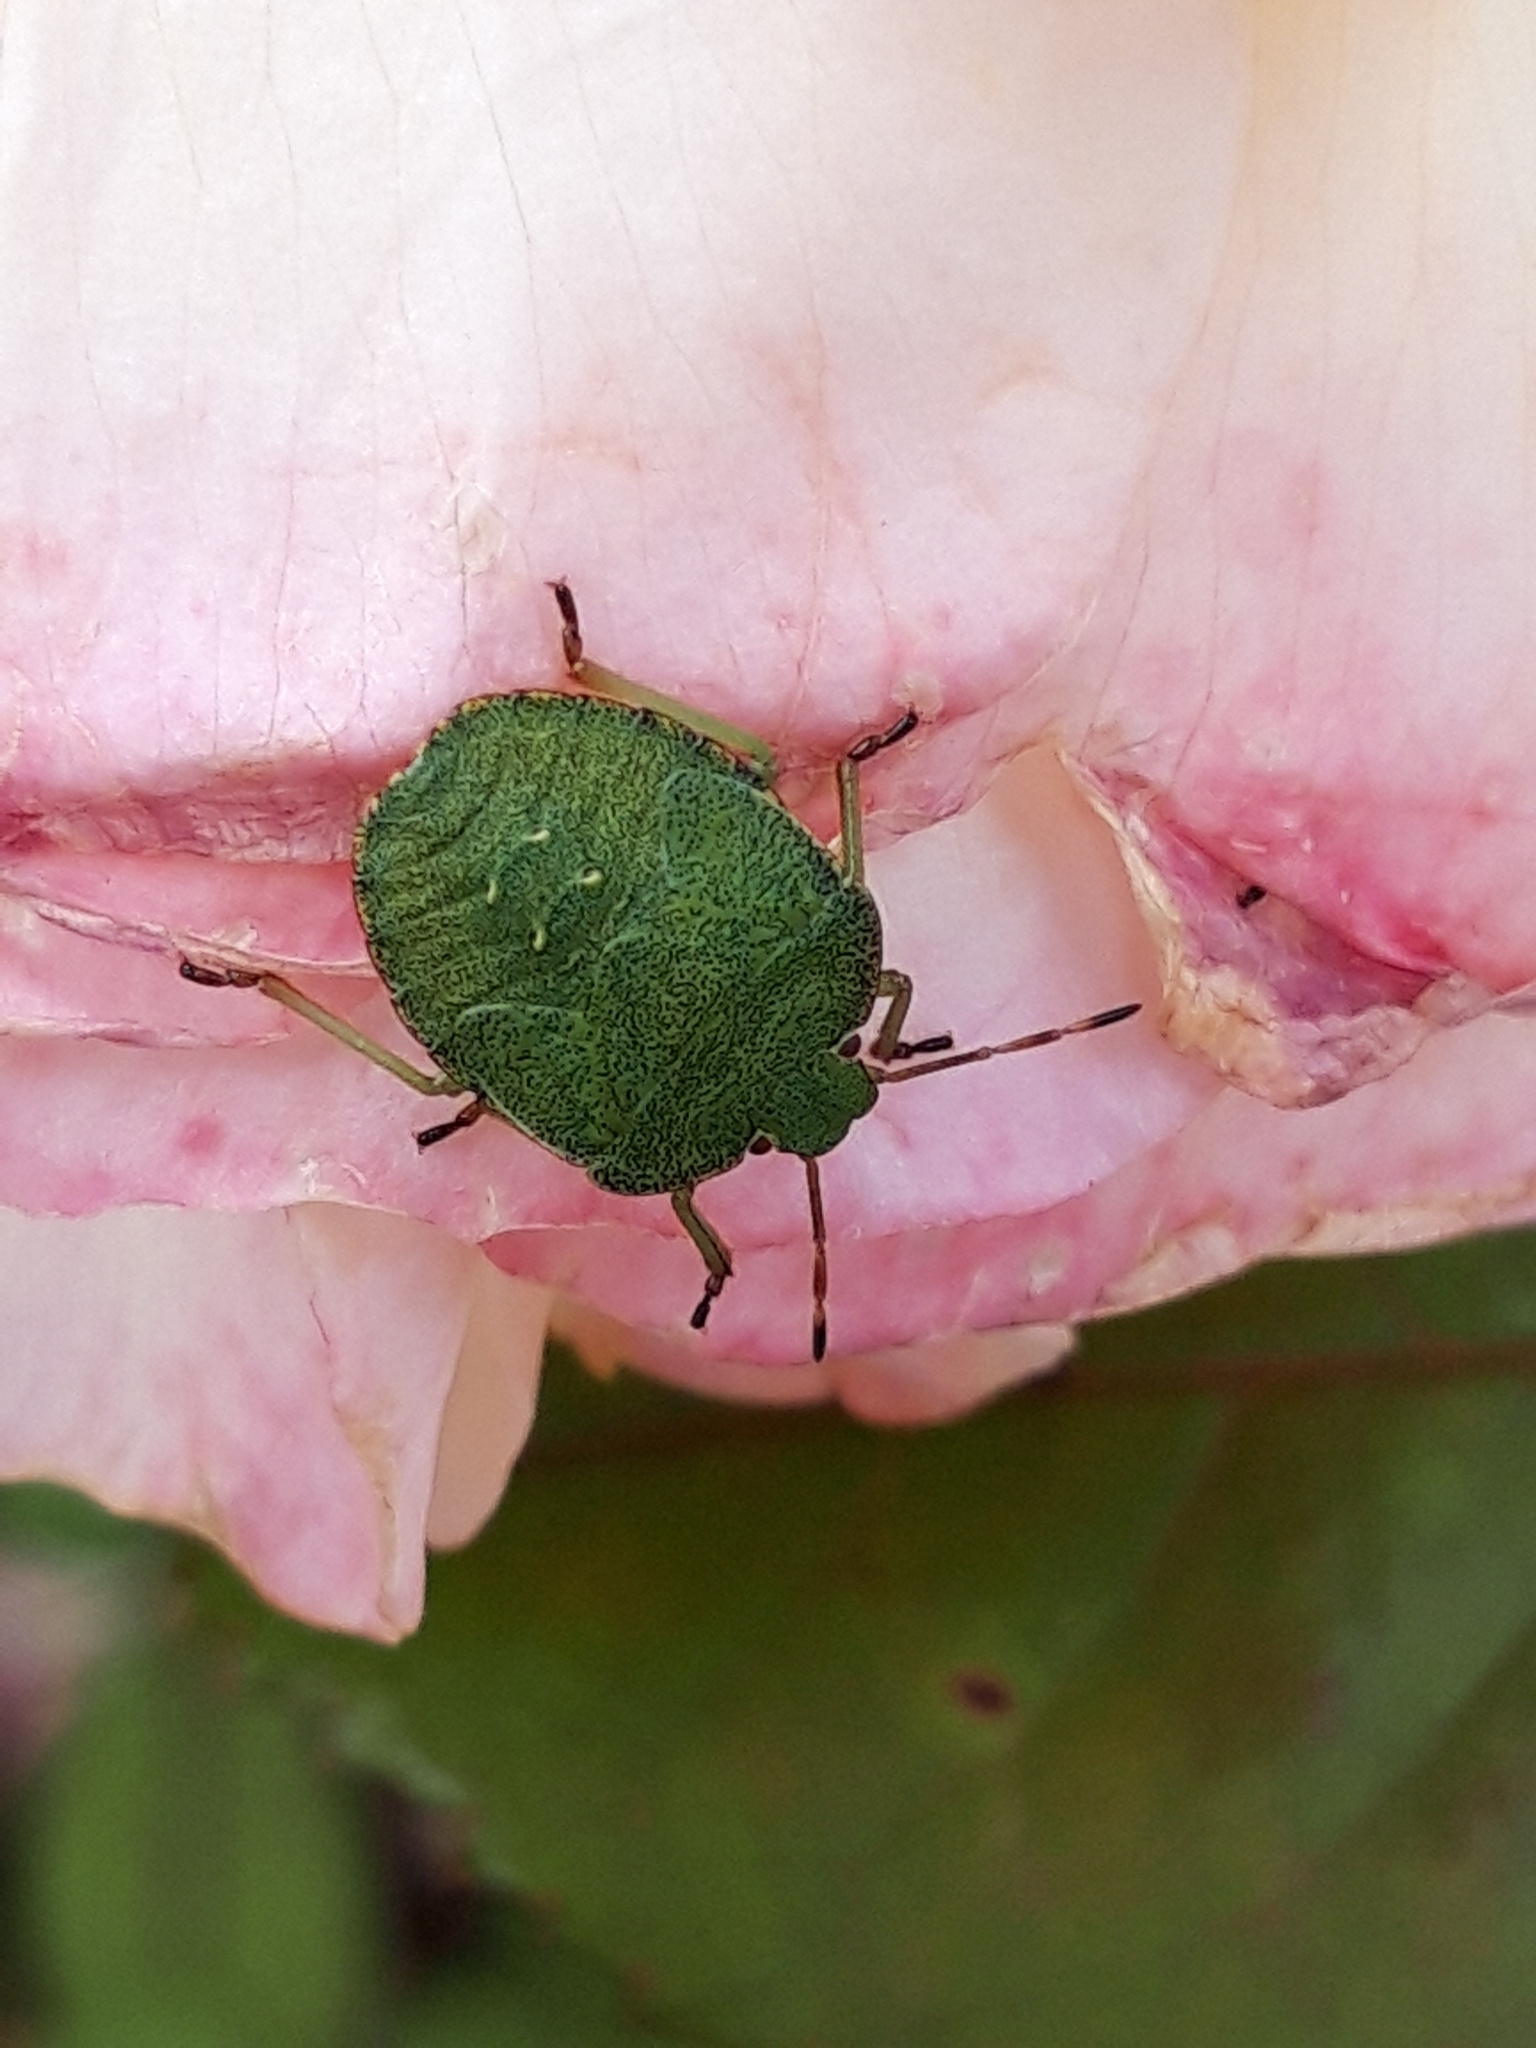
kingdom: Animalia
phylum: Arthropoda
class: Insecta
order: Hemiptera
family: Pentatomidae
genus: Palomena
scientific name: Palomena prasina
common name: Green shieldbug
